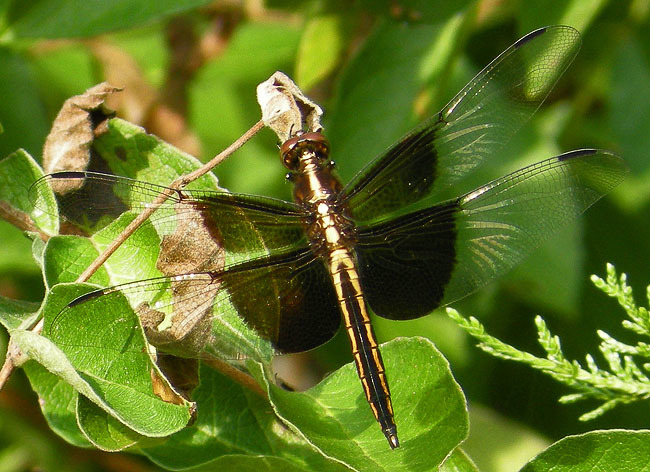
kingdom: Animalia
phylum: Arthropoda
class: Insecta
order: Odonata
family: Libellulidae
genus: Libellula
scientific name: Libellula luctuosa
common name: Widow skimmer
